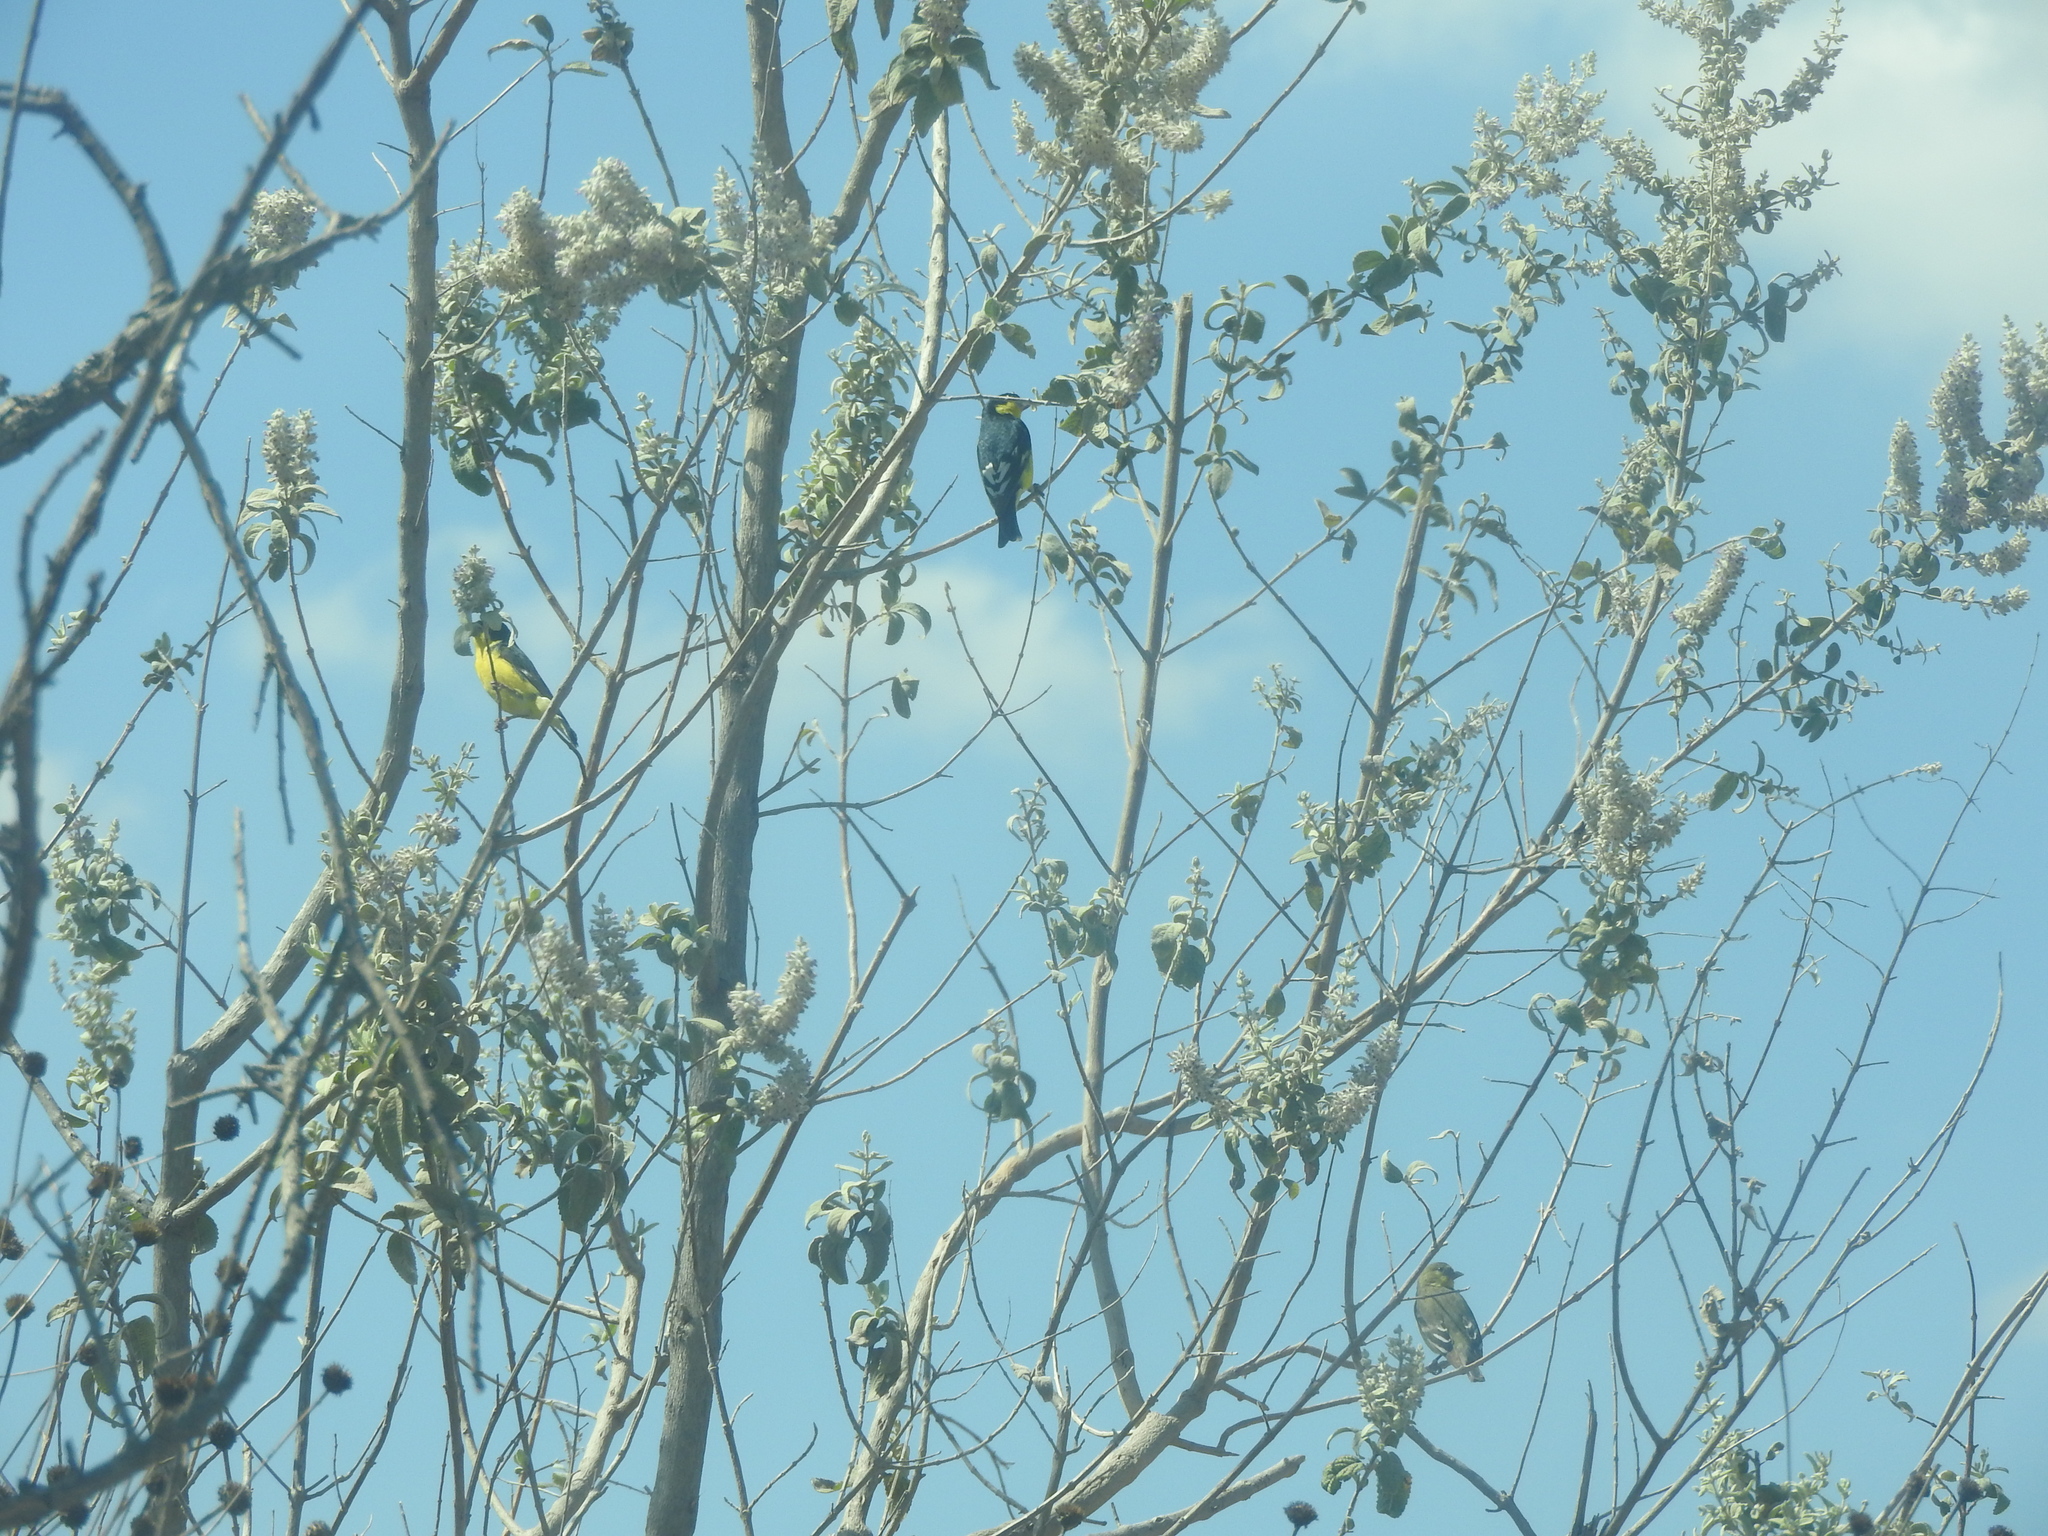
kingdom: Animalia
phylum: Chordata
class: Aves
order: Passeriformes
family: Fringillidae
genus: Spinus
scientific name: Spinus psaltria
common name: Lesser goldfinch
